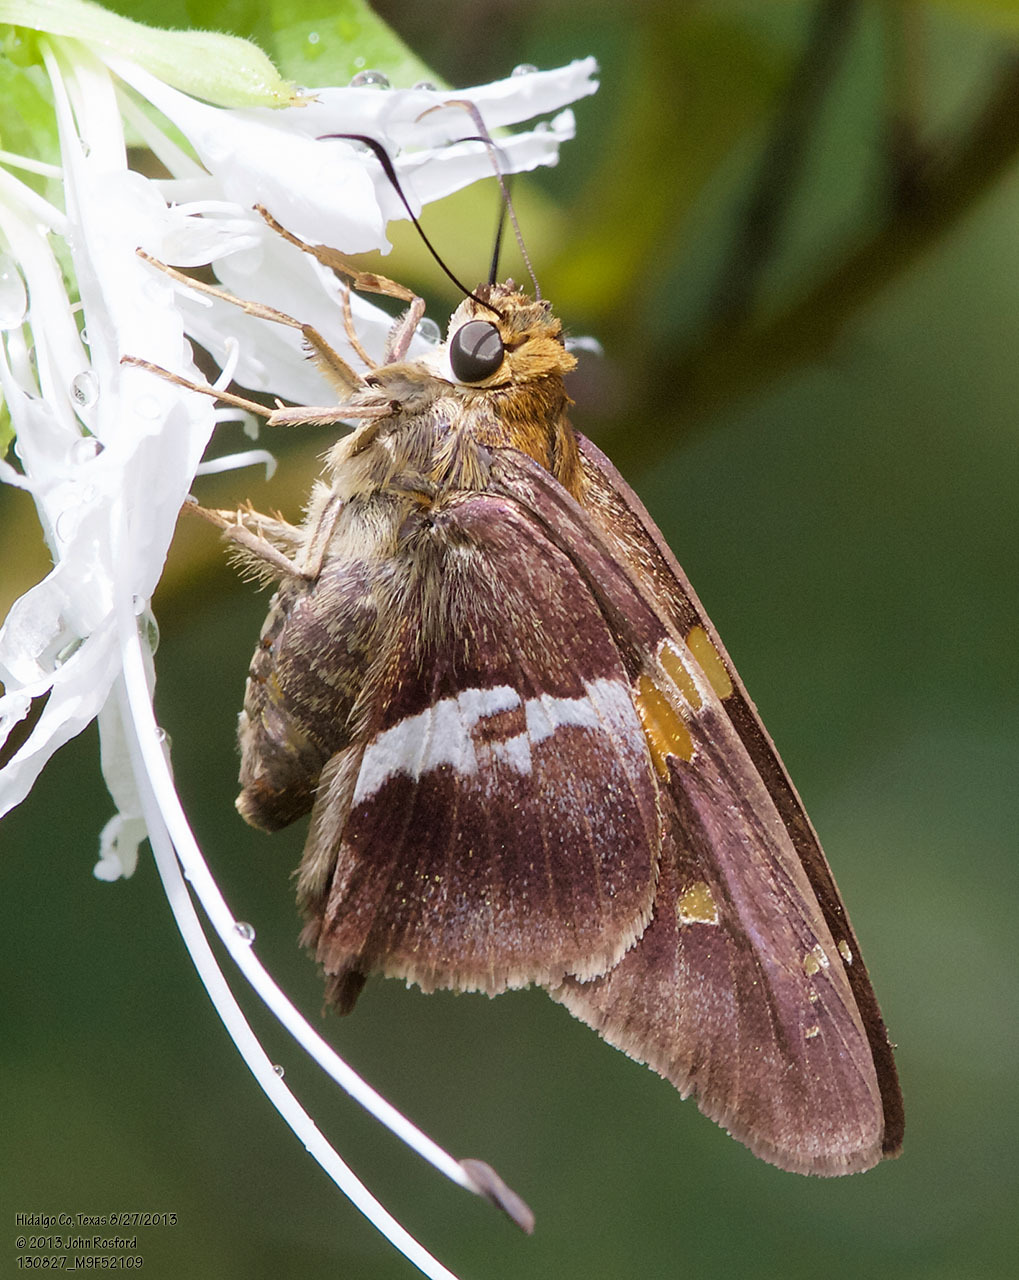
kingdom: Animalia
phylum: Arthropoda
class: Insecta
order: Lepidoptera
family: Hesperiidae
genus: Aguna
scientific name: Aguna asander
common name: Gold-spotted aguna
